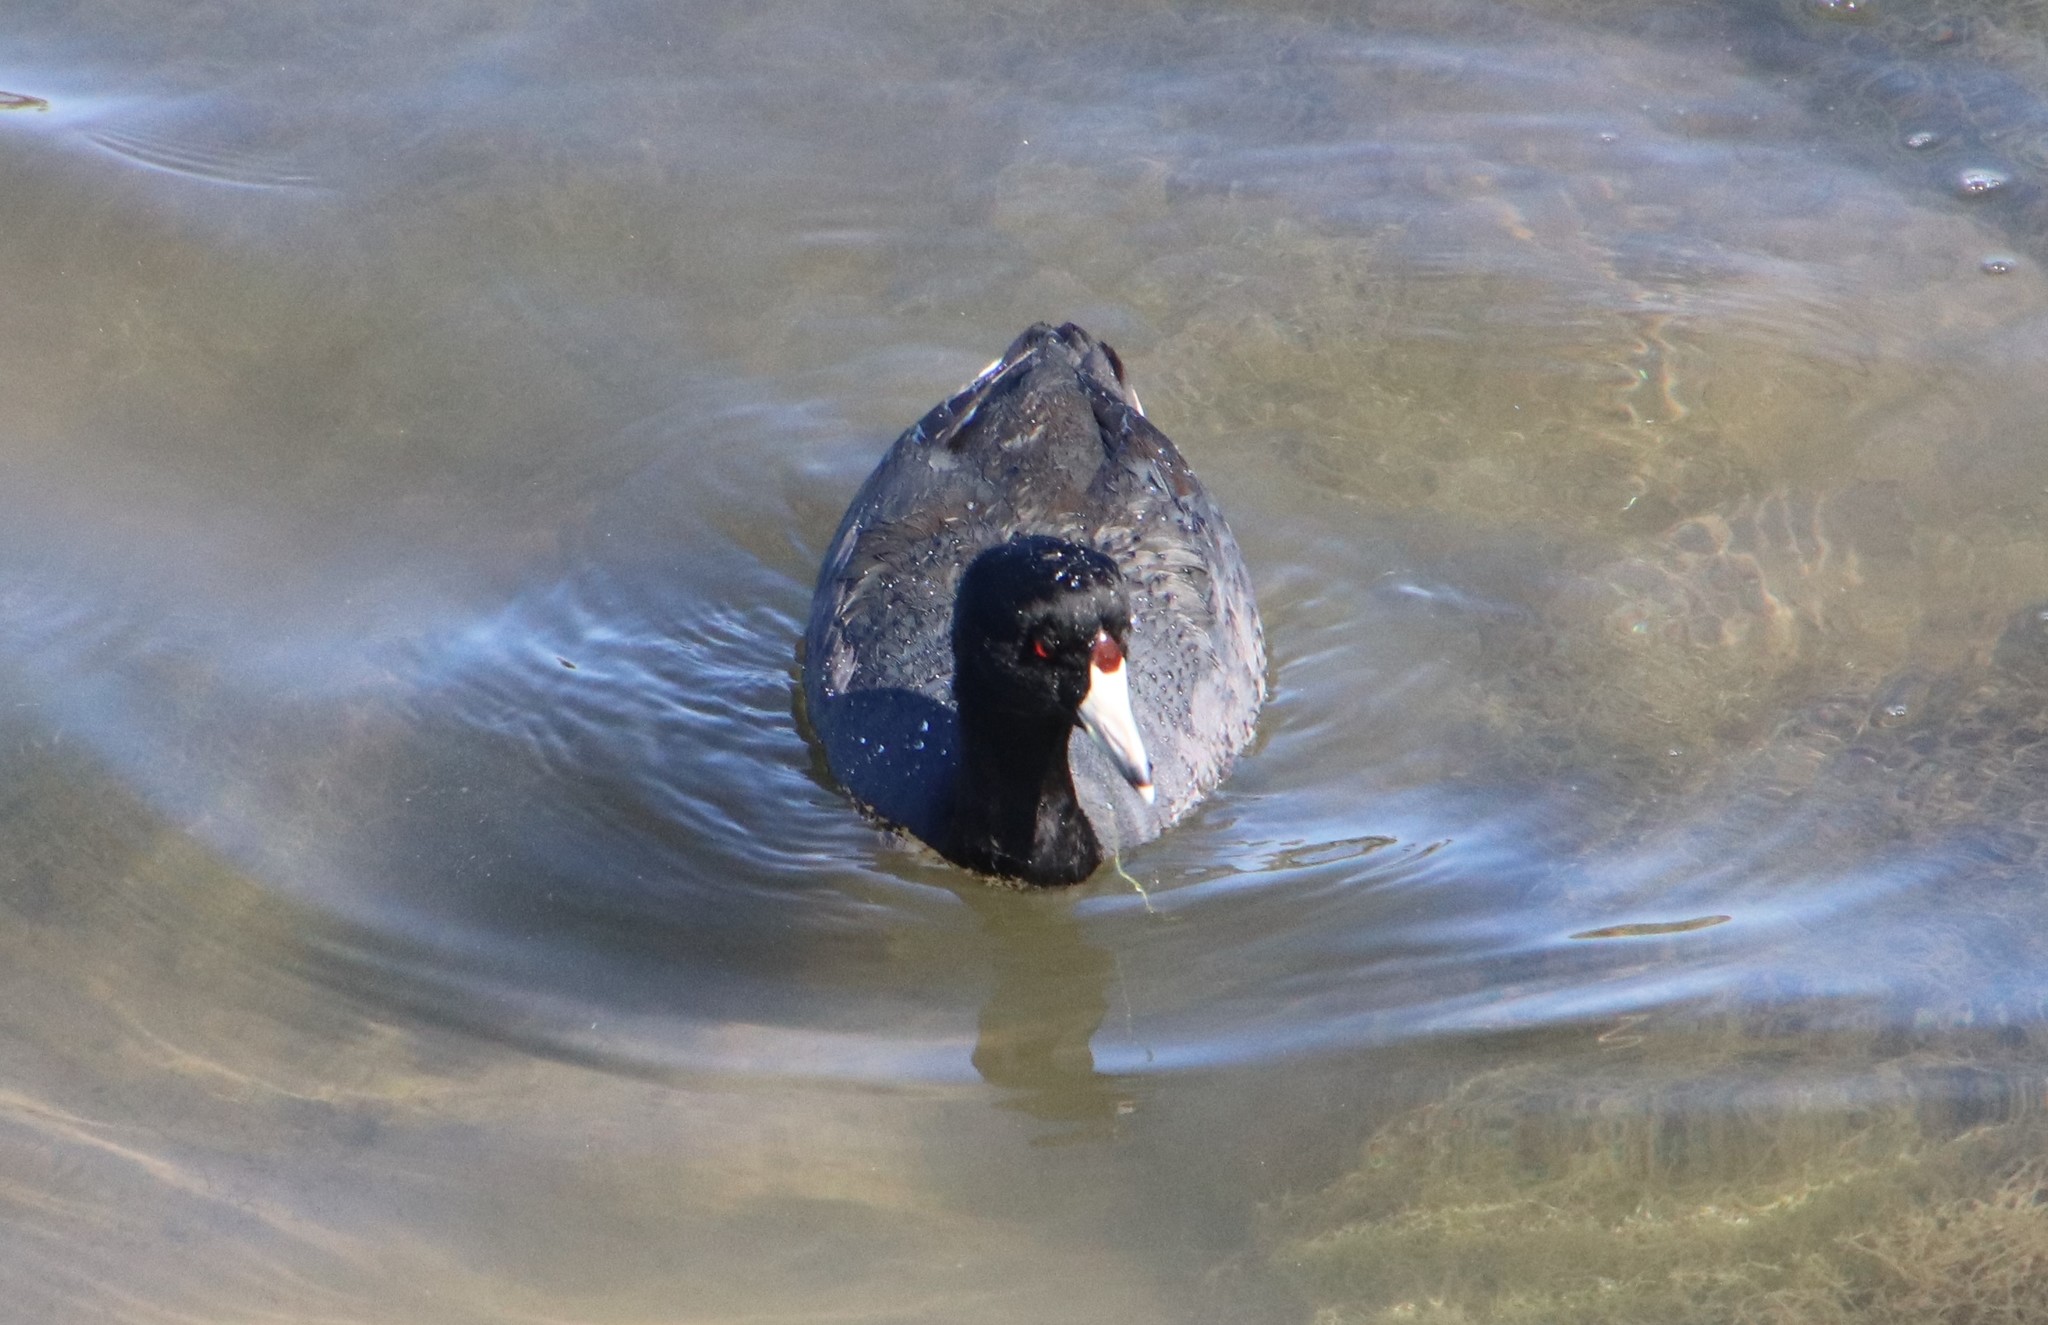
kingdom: Animalia
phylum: Chordata
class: Aves
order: Gruiformes
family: Rallidae
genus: Fulica
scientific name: Fulica americana
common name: American coot
